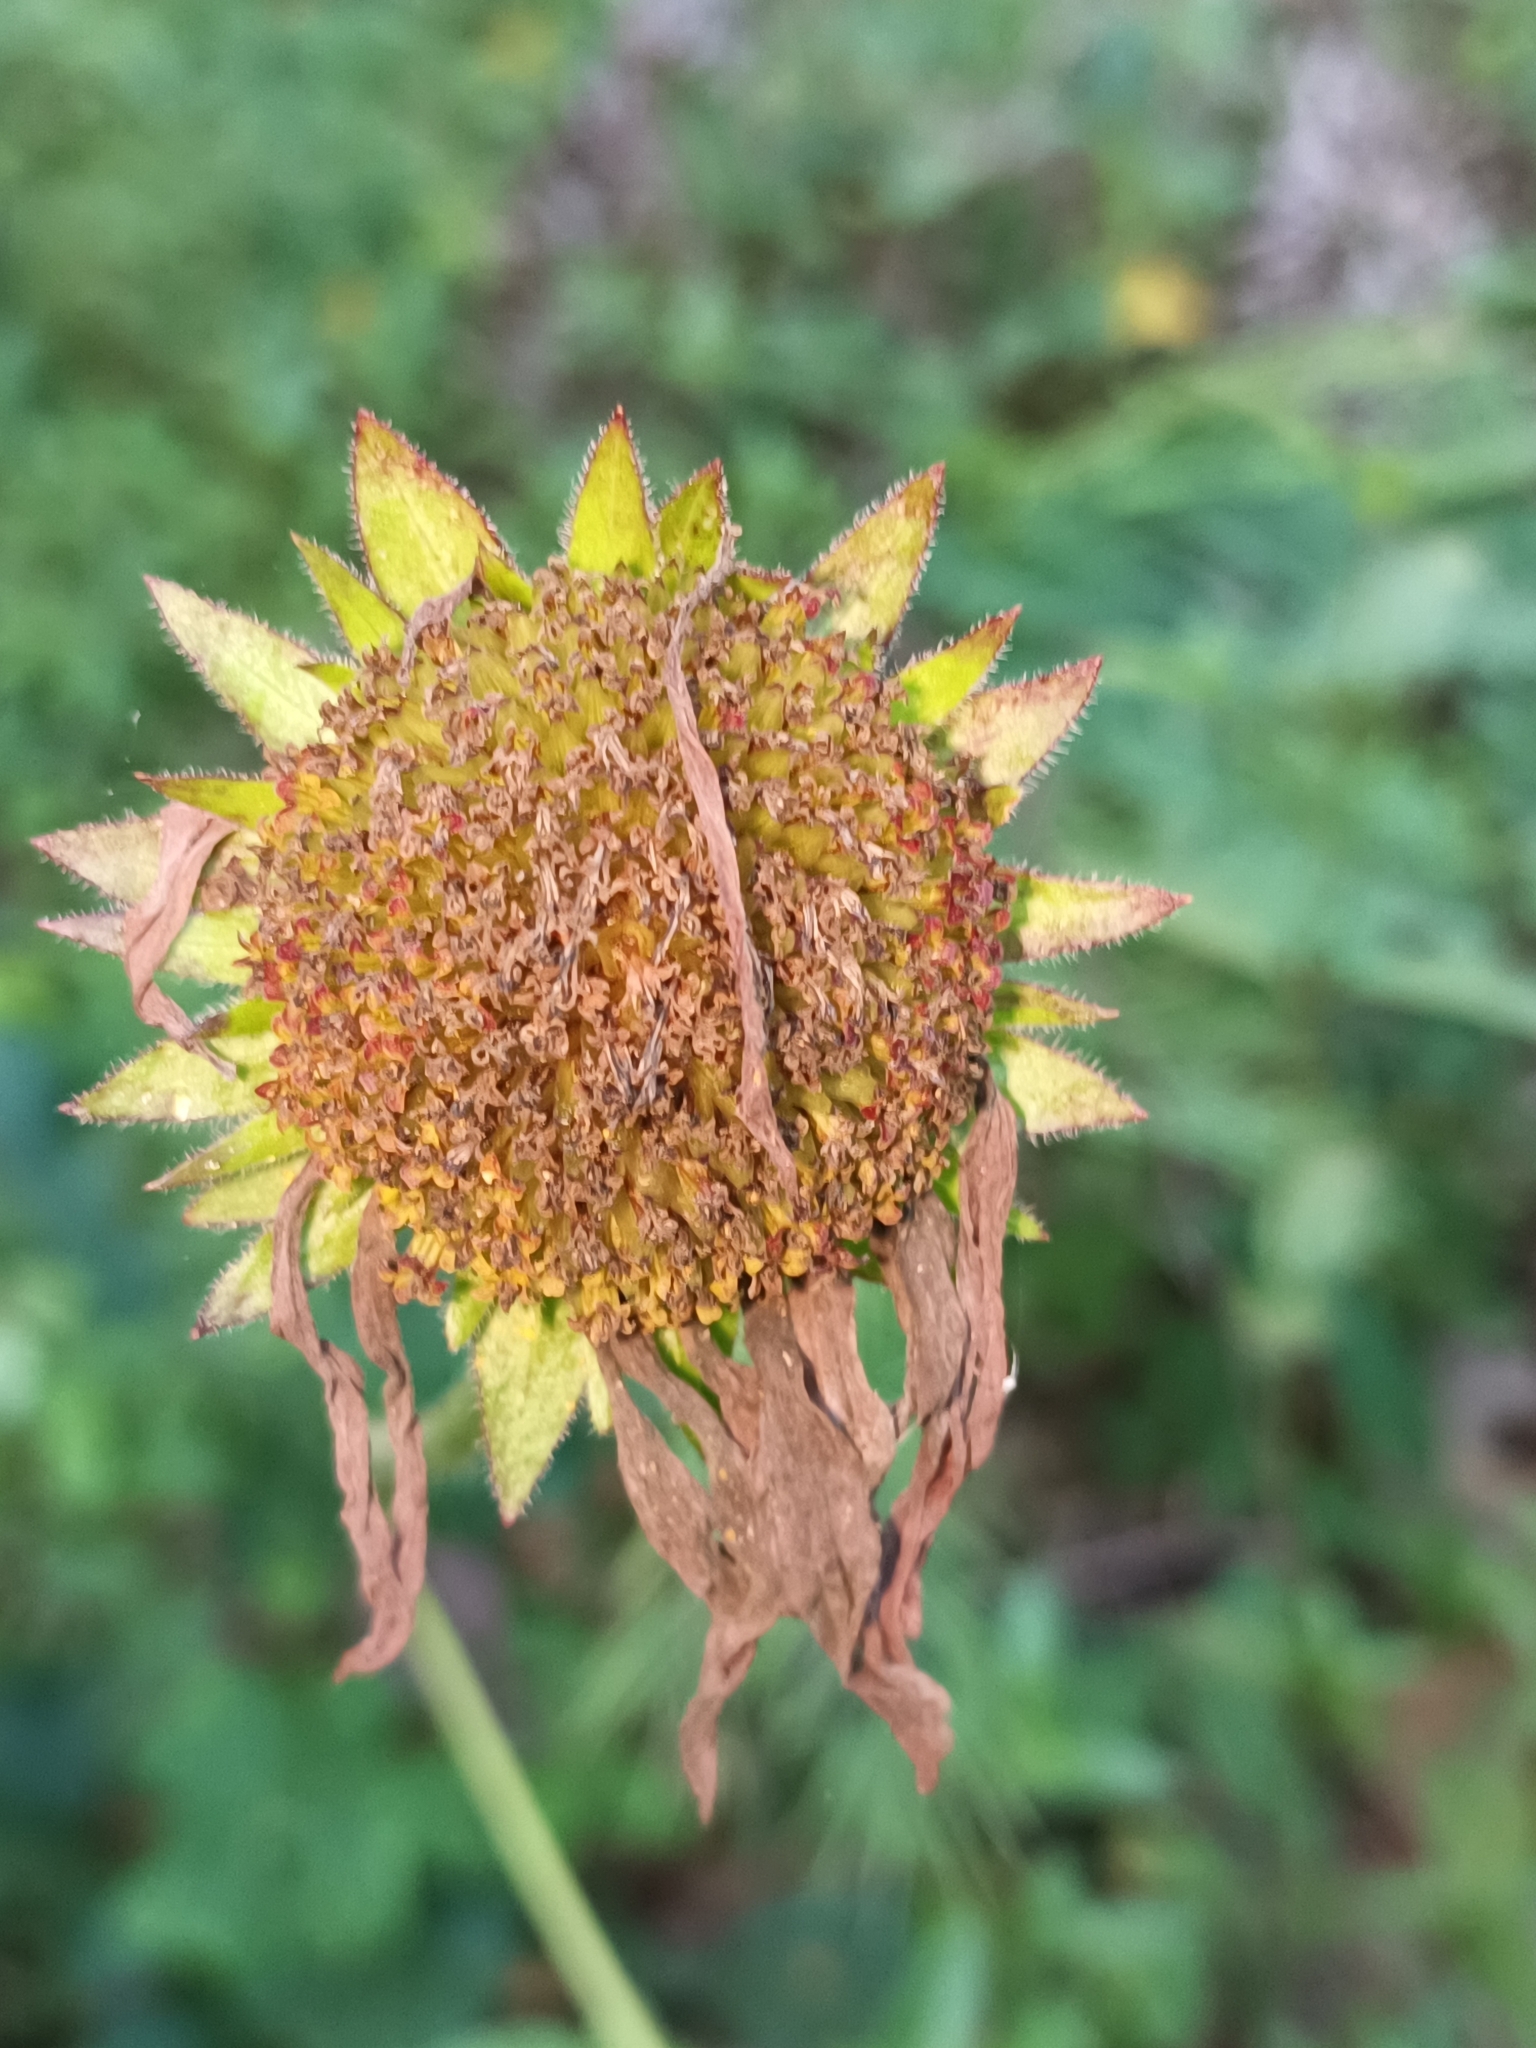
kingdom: Plantae
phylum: Tracheophyta
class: Magnoliopsida
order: Asterales
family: Asteraceae
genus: Iostephane
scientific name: Iostephane heterophylla
